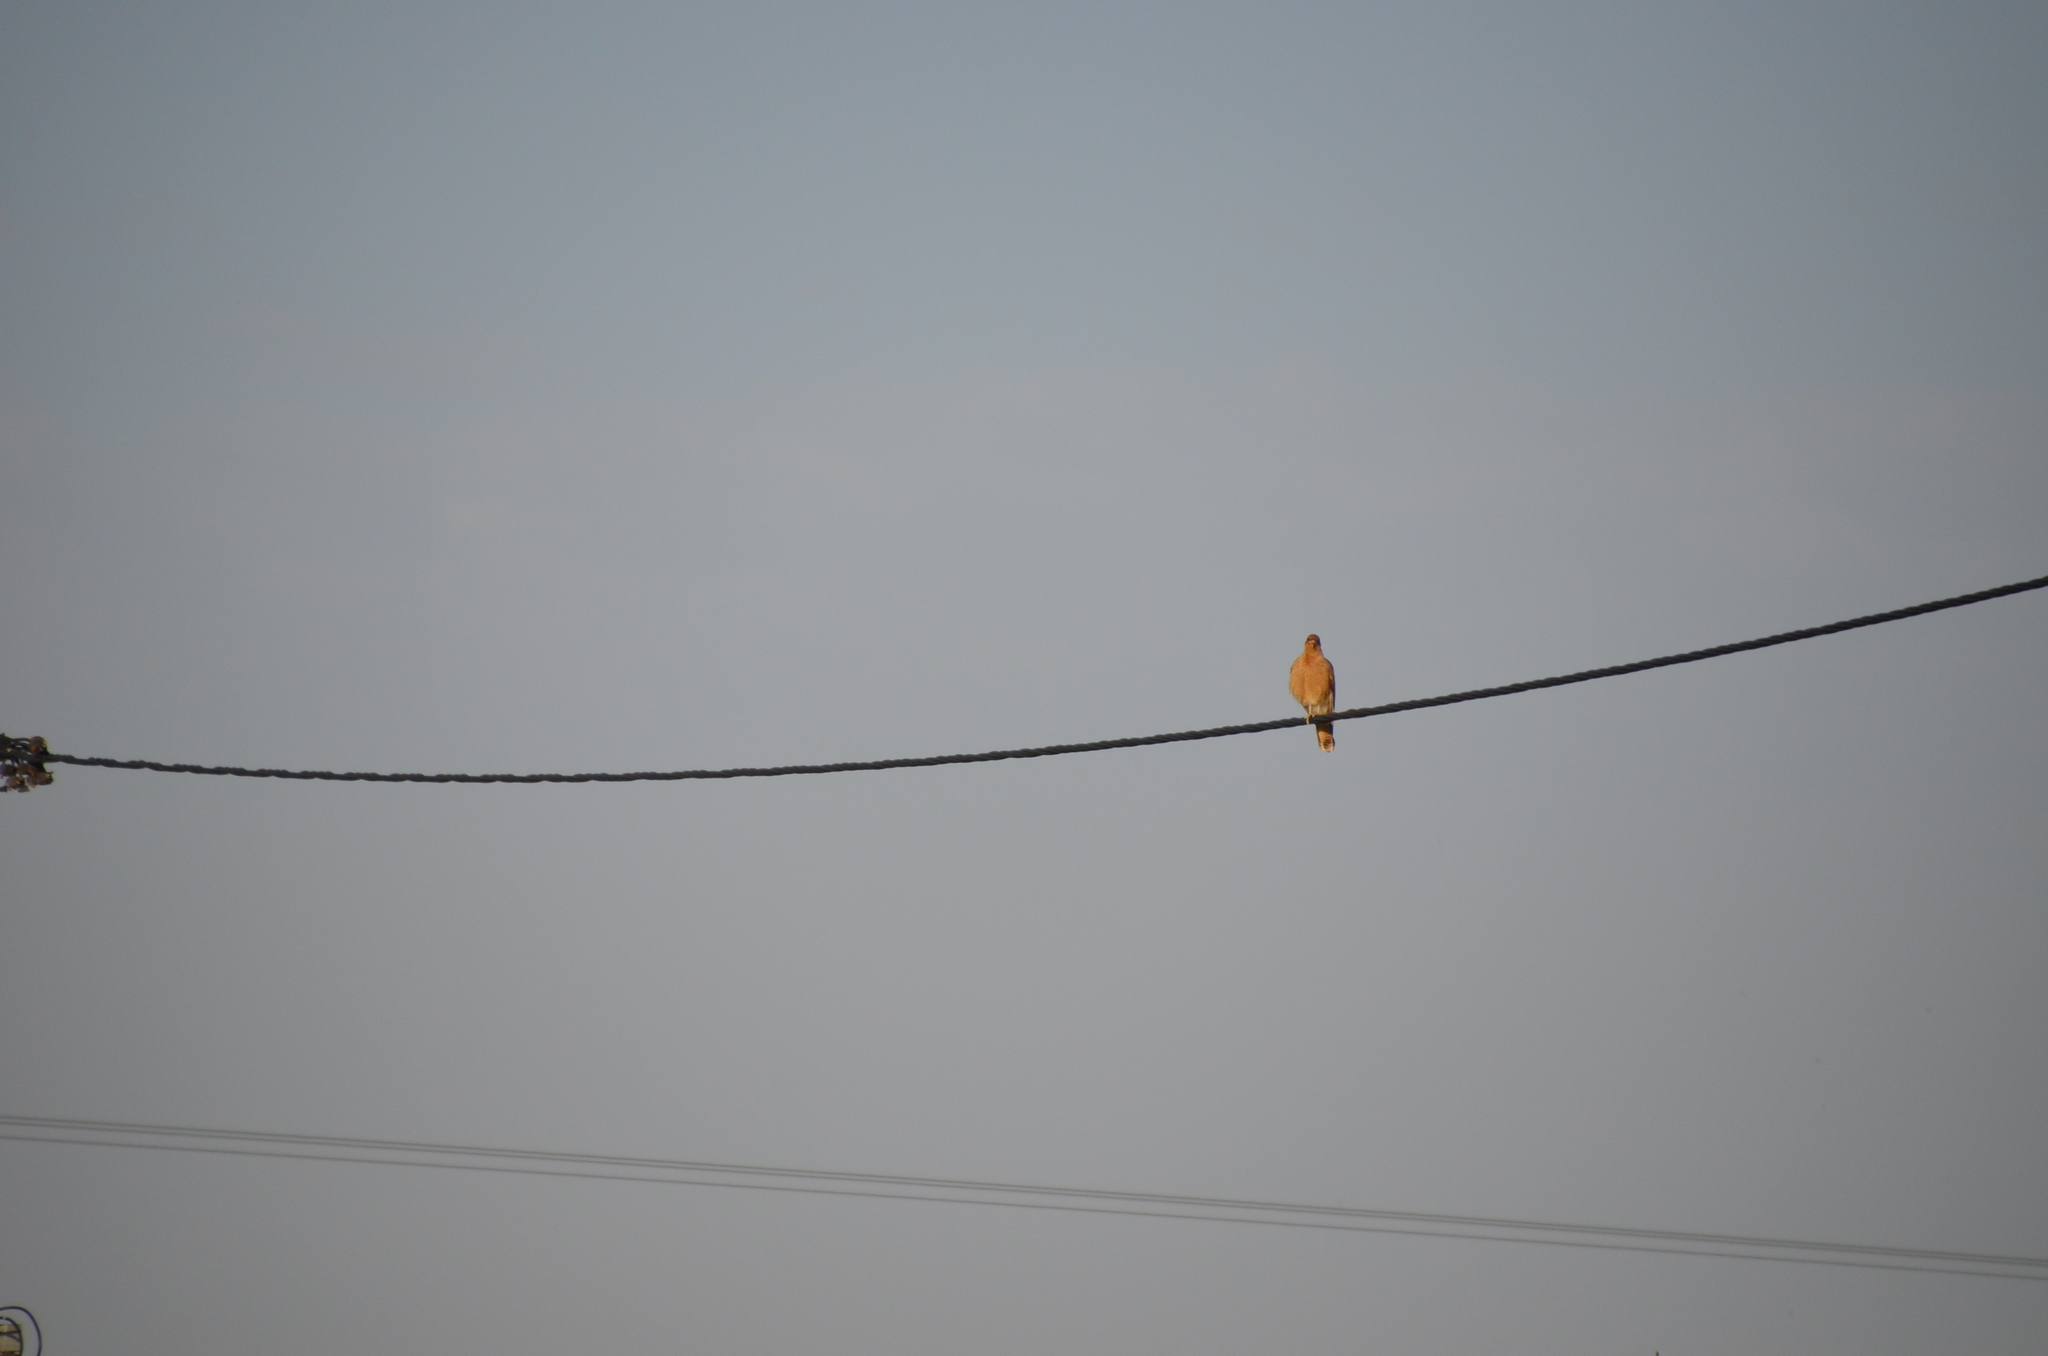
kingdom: Animalia
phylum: Chordata
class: Aves
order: Falconiformes
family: Falconidae
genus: Daptrius
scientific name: Daptrius
